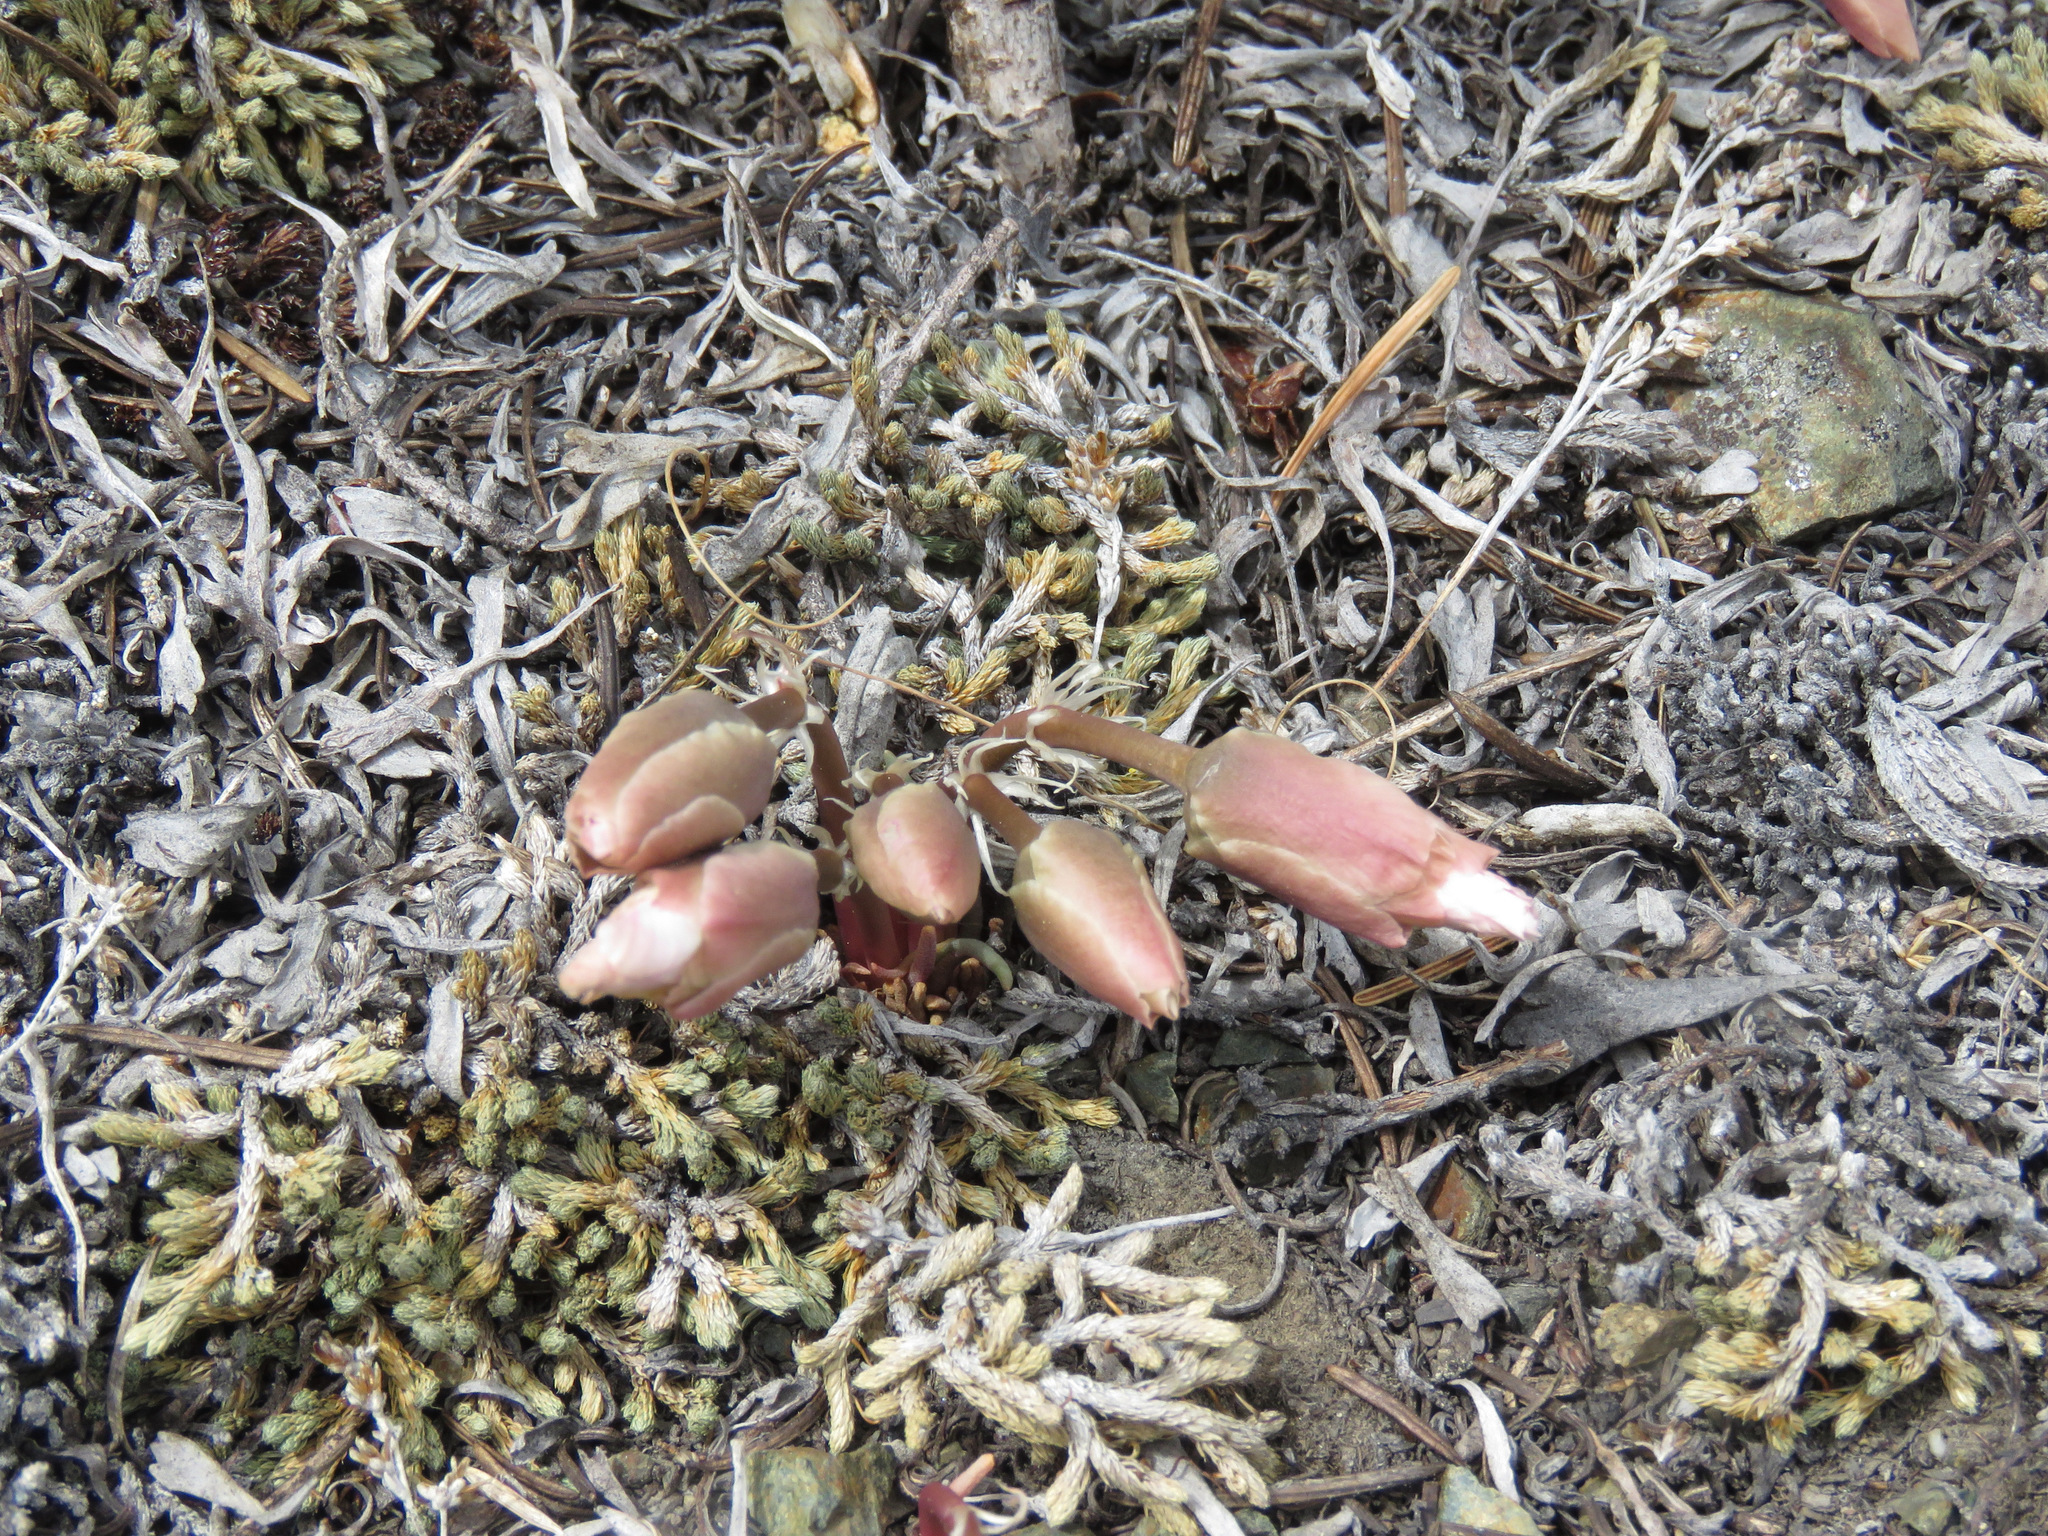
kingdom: Plantae
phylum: Tracheophyta
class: Magnoliopsida
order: Caryophyllales
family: Montiaceae
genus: Lewisia
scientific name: Lewisia rediviva
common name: Bitter-root
